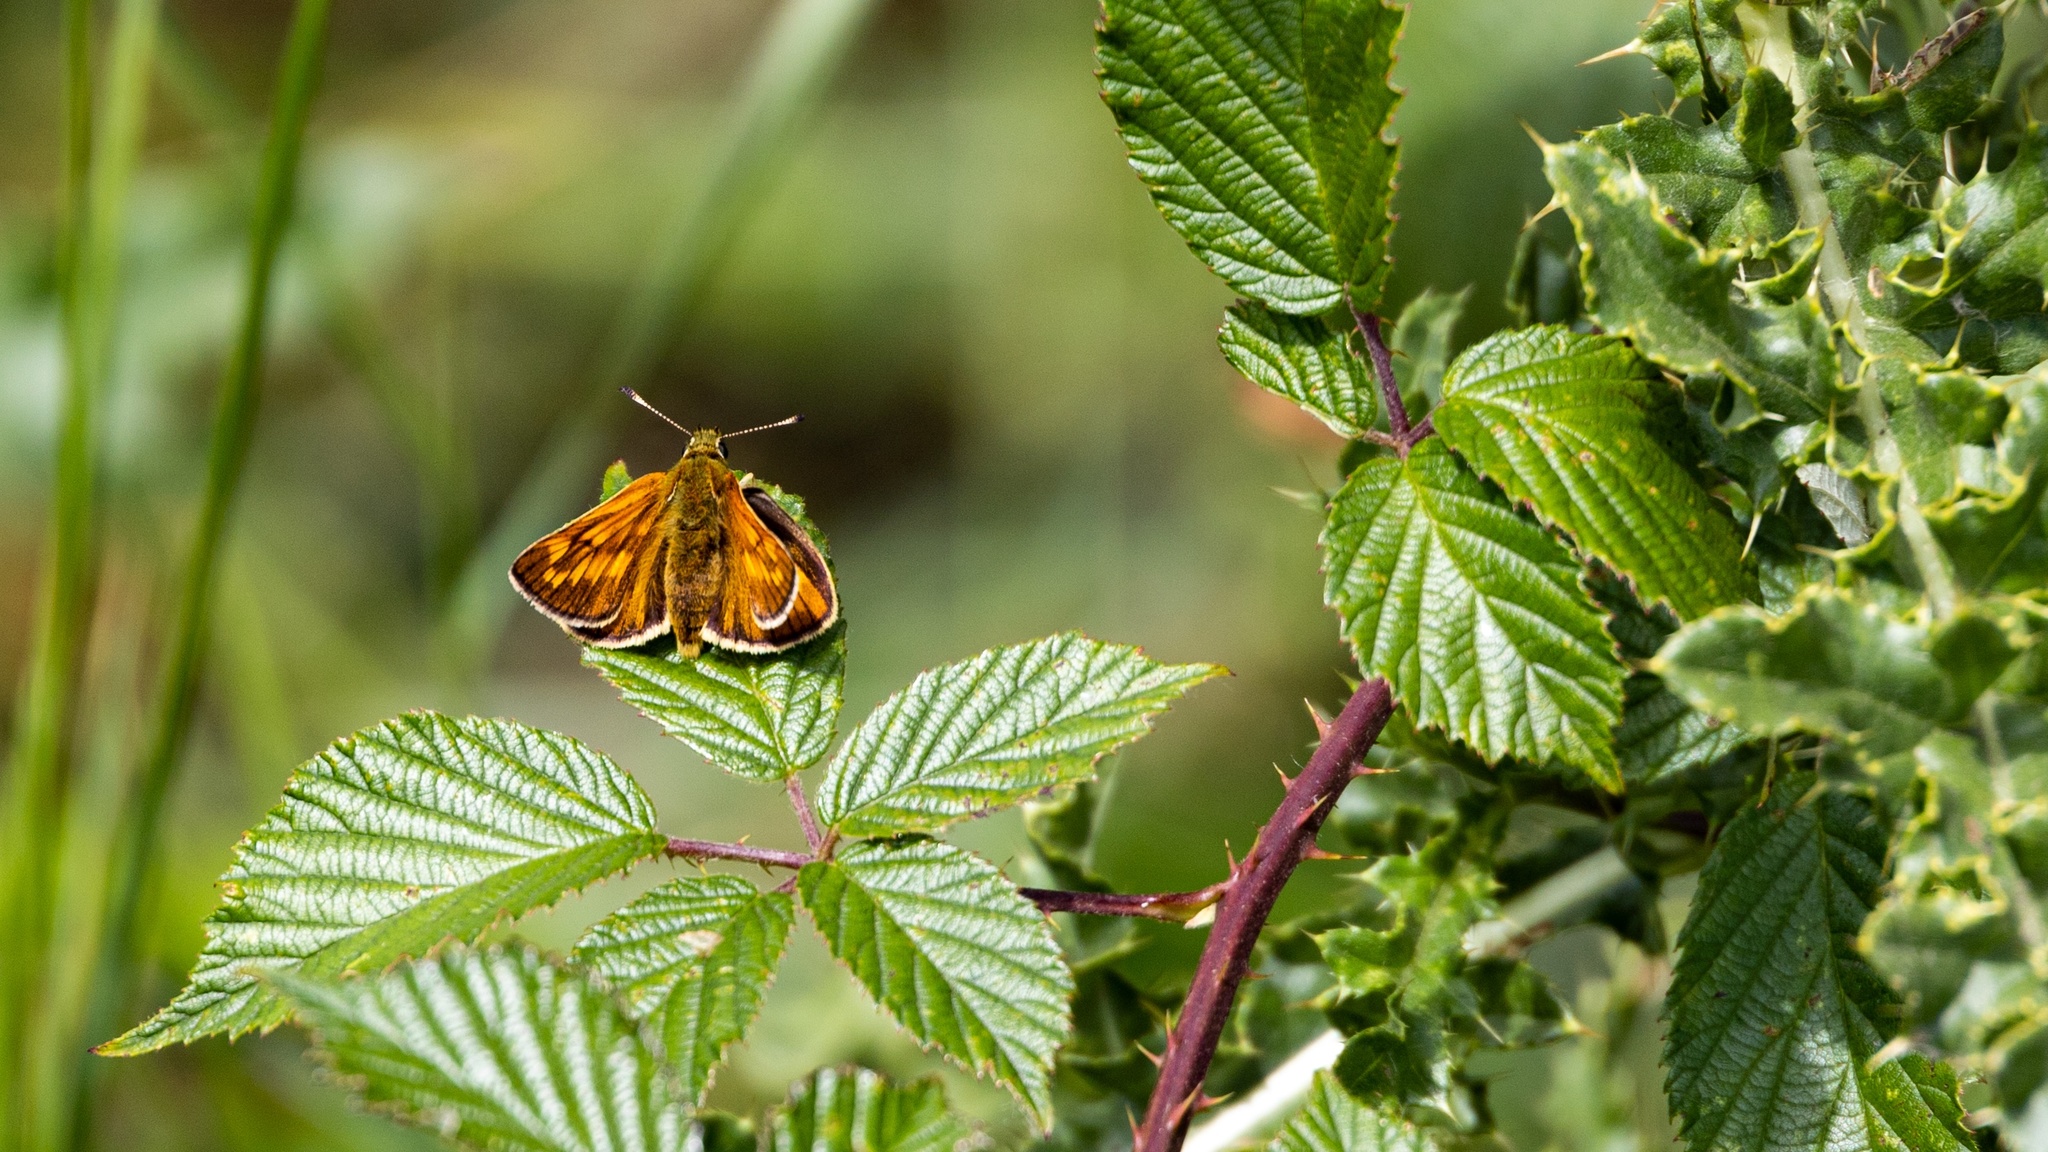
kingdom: Animalia
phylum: Arthropoda
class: Insecta
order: Lepidoptera
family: Hesperiidae
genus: Ochlodes
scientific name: Ochlodes venata
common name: Large skipper
